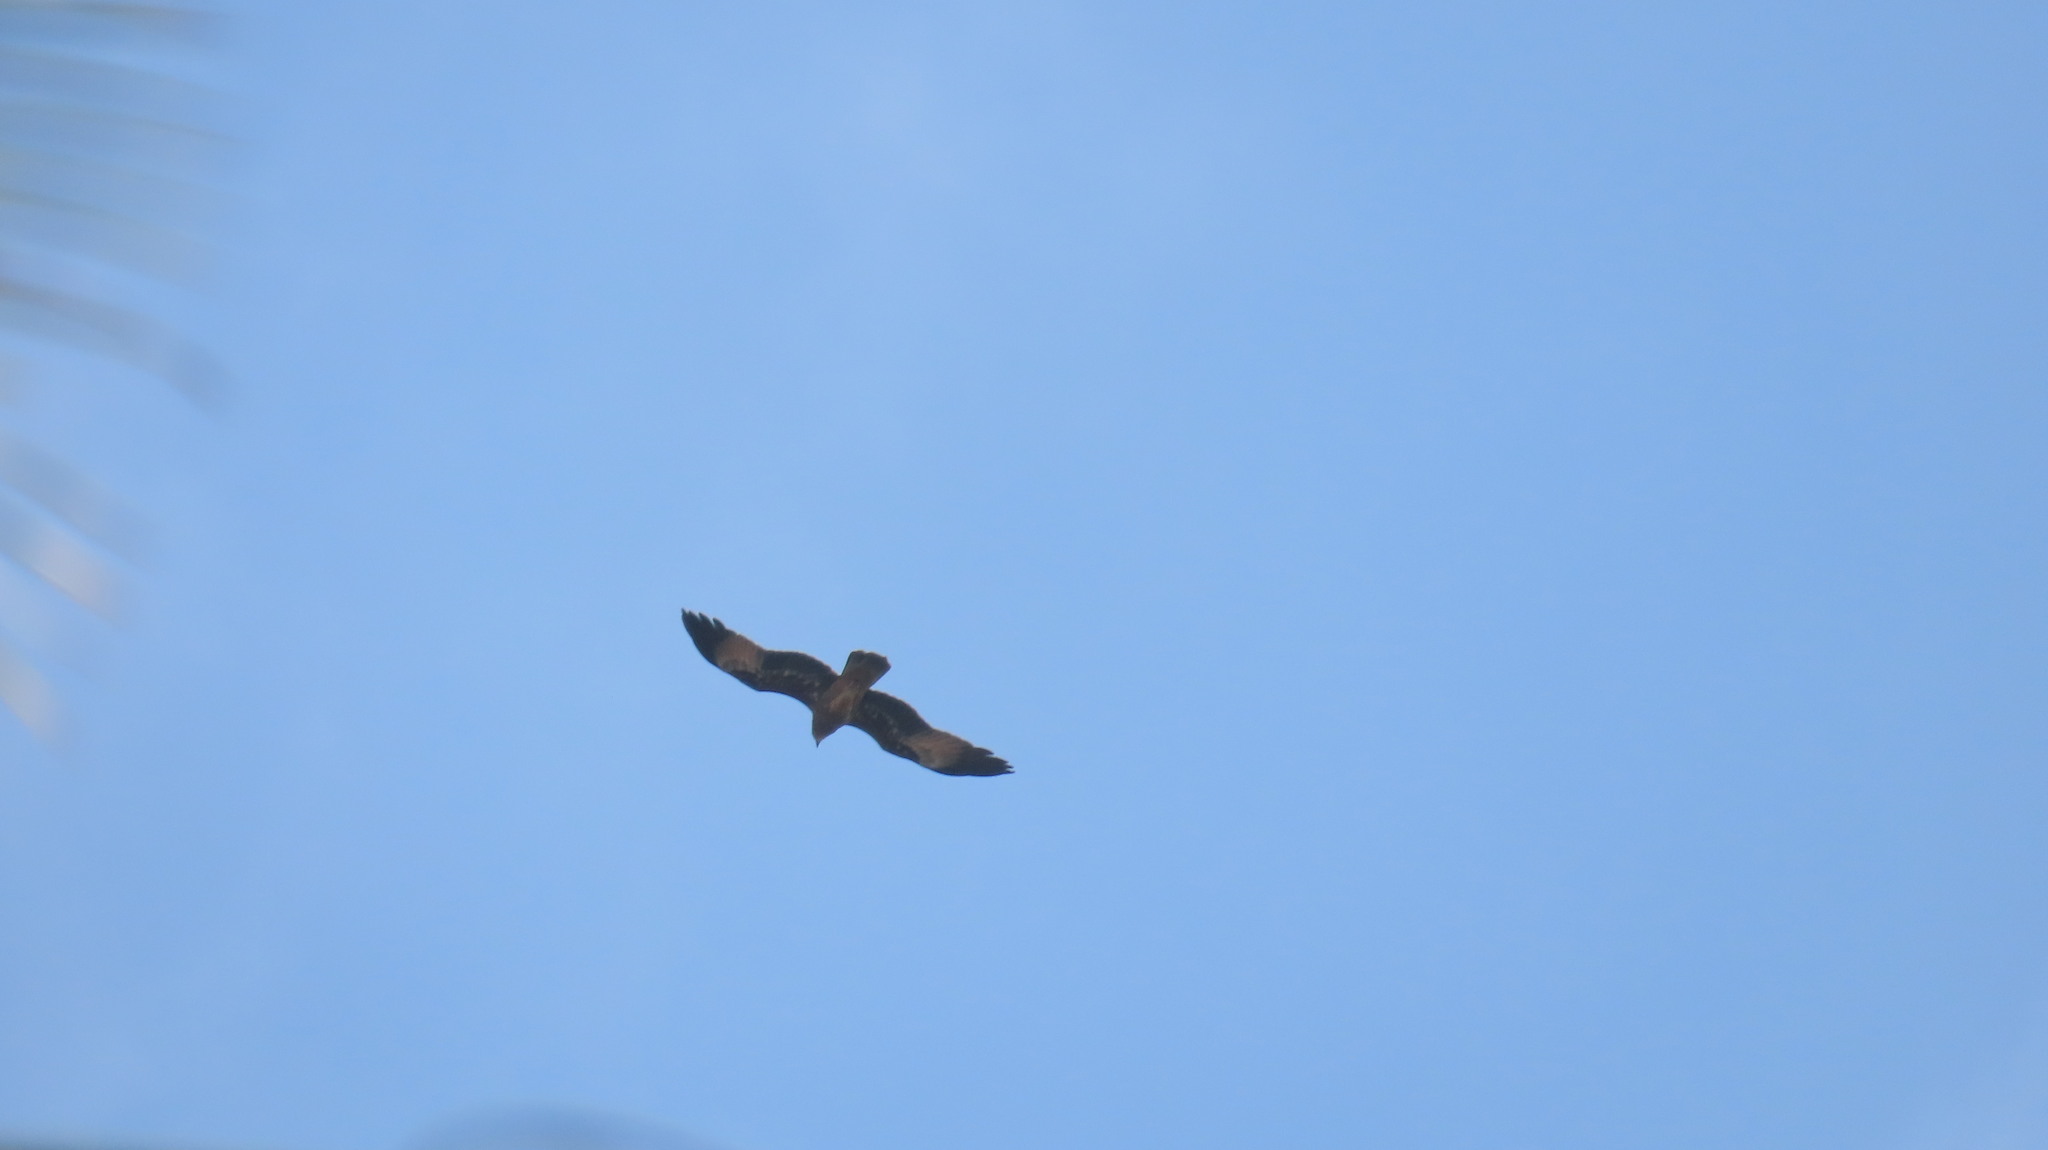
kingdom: Animalia
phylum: Chordata
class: Aves
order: Accipitriformes
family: Accipitridae
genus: Haliastur
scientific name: Haliastur indus
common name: Brahminy kite
